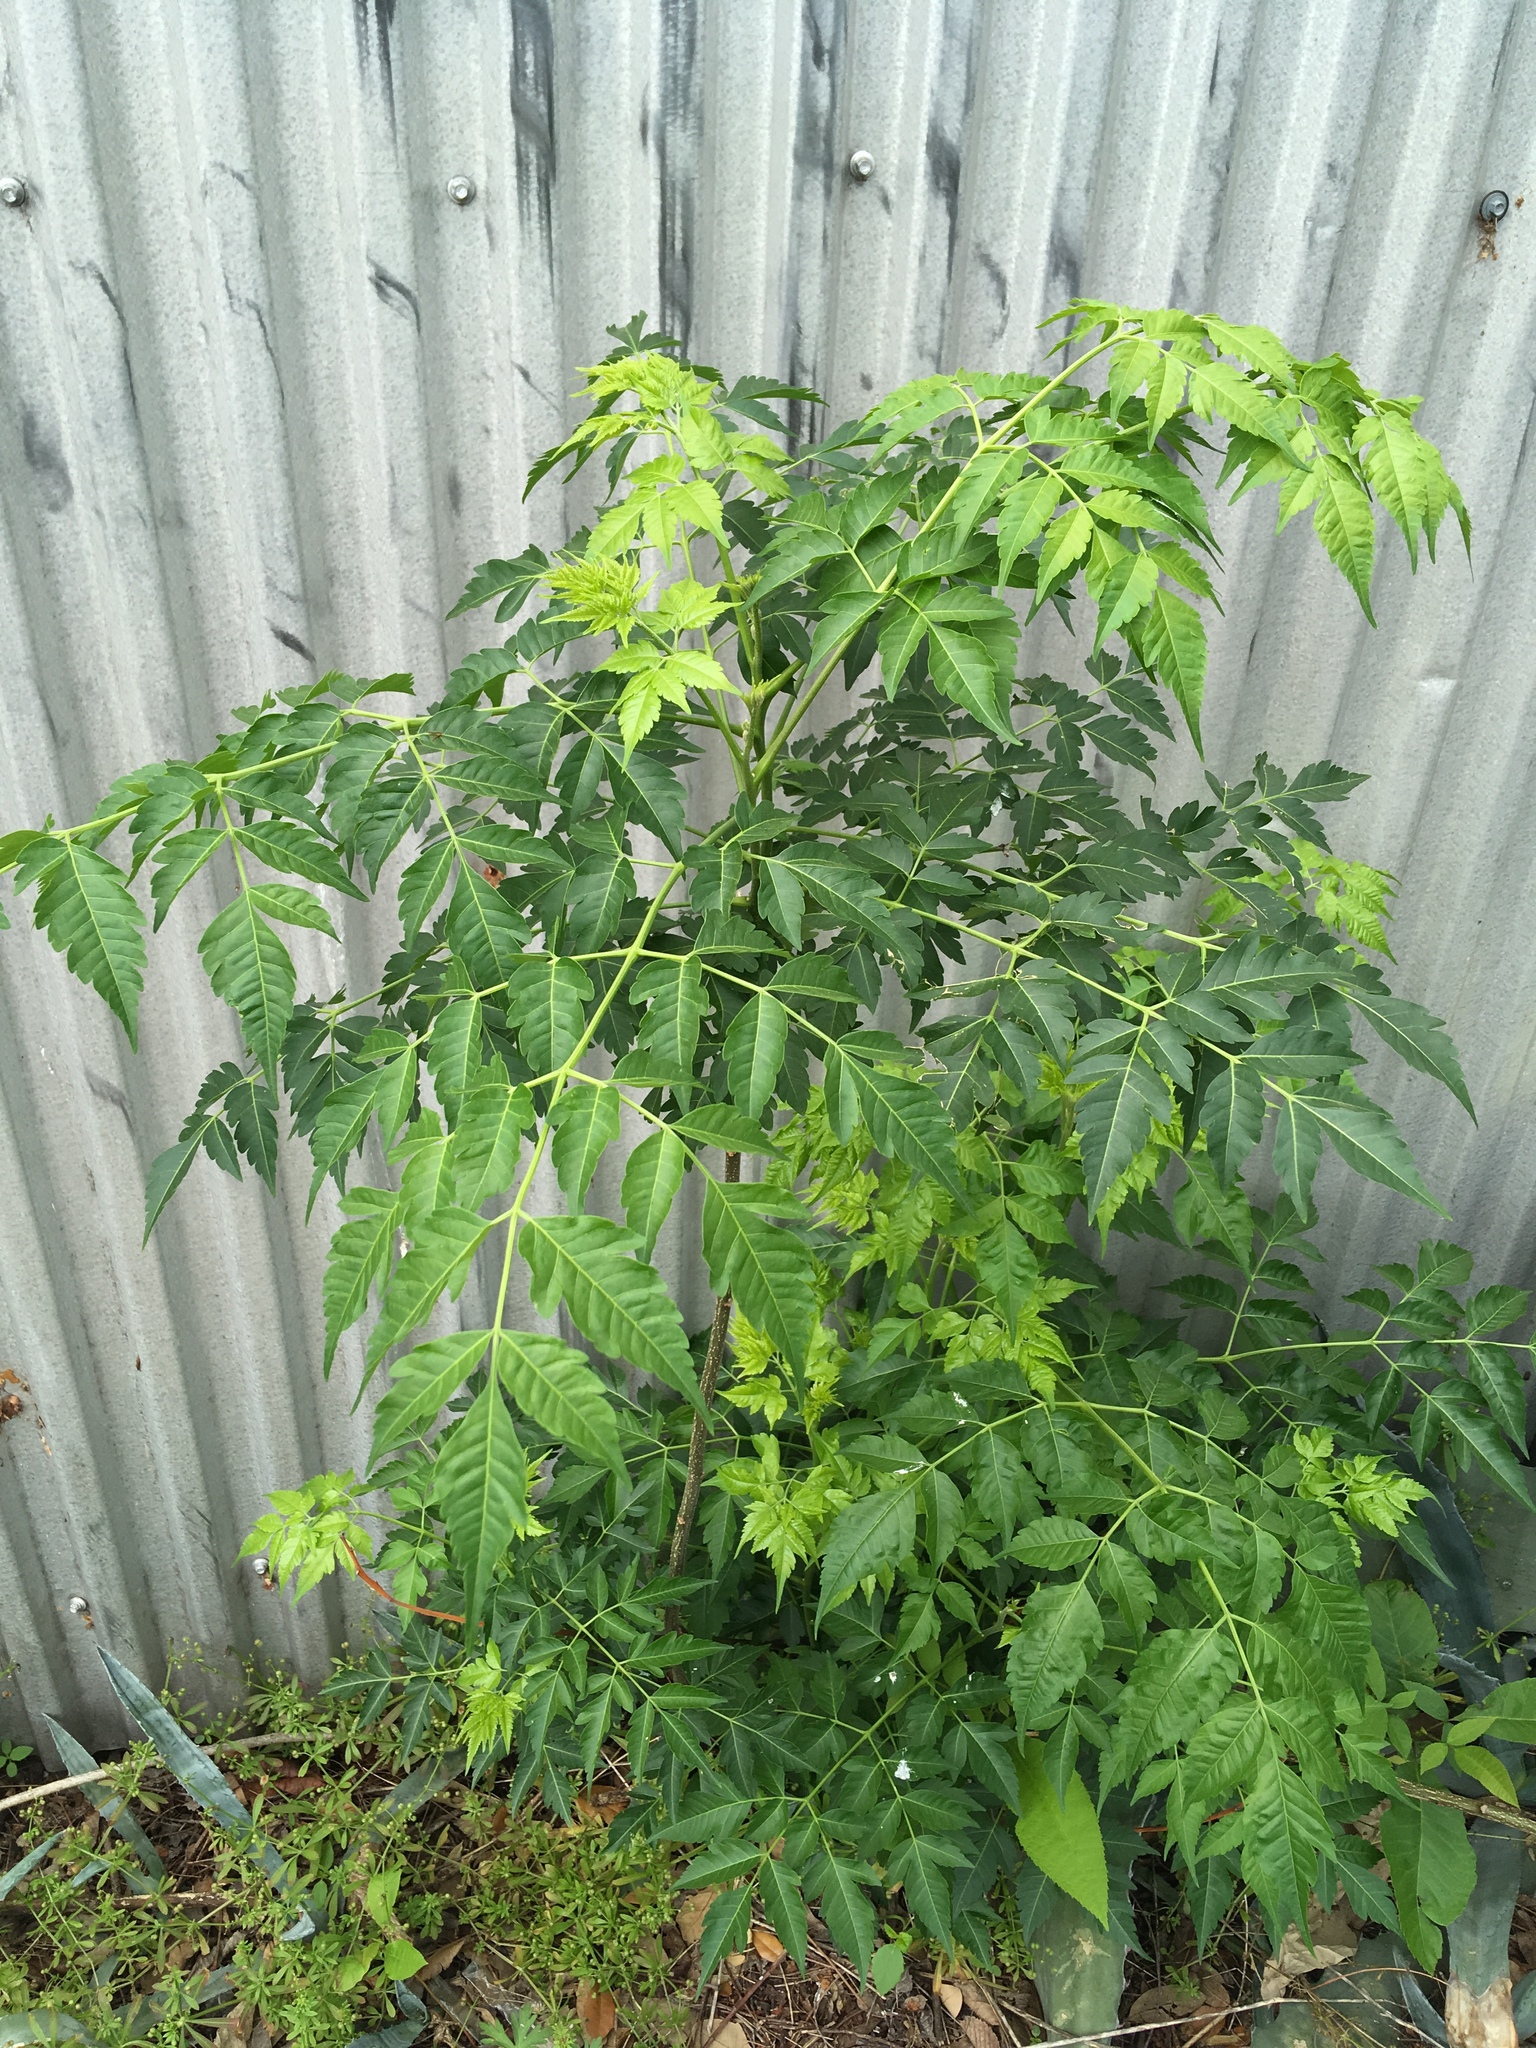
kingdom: Plantae
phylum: Tracheophyta
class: Magnoliopsida
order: Sapindales
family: Meliaceae
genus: Melia
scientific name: Melia azedarach
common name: Chinaberrytree
